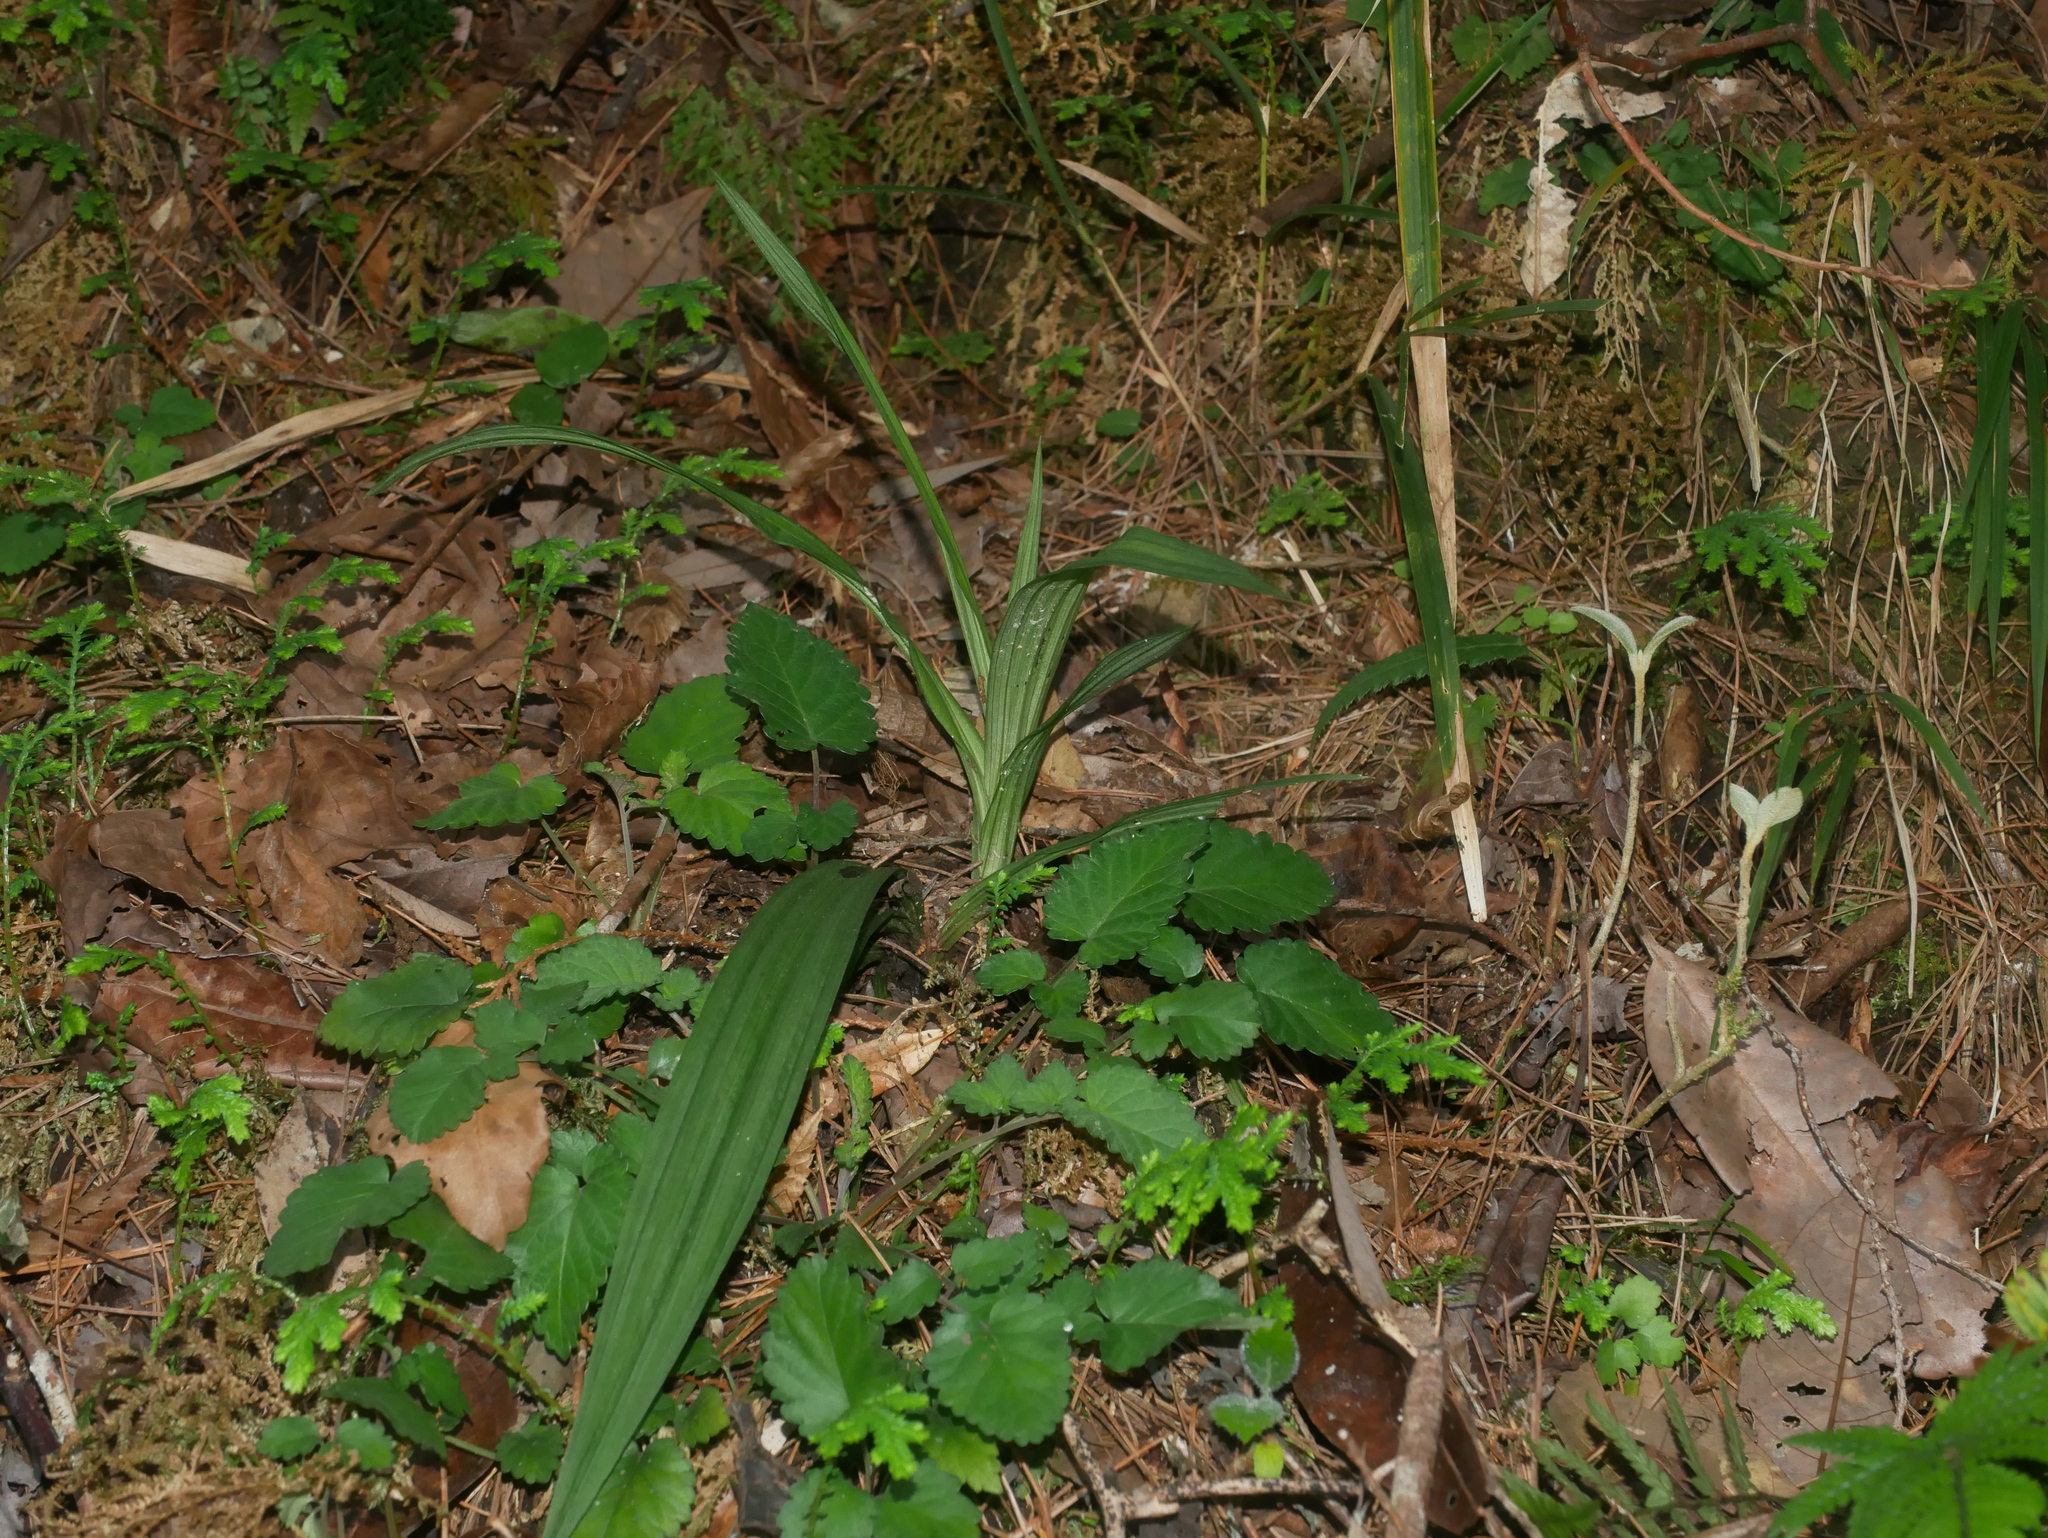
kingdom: Plantae
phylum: Tracheophyta
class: Liliopsida
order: Asparagales
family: Orchidaceae
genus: Calanthe
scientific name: Calanthe davidii
